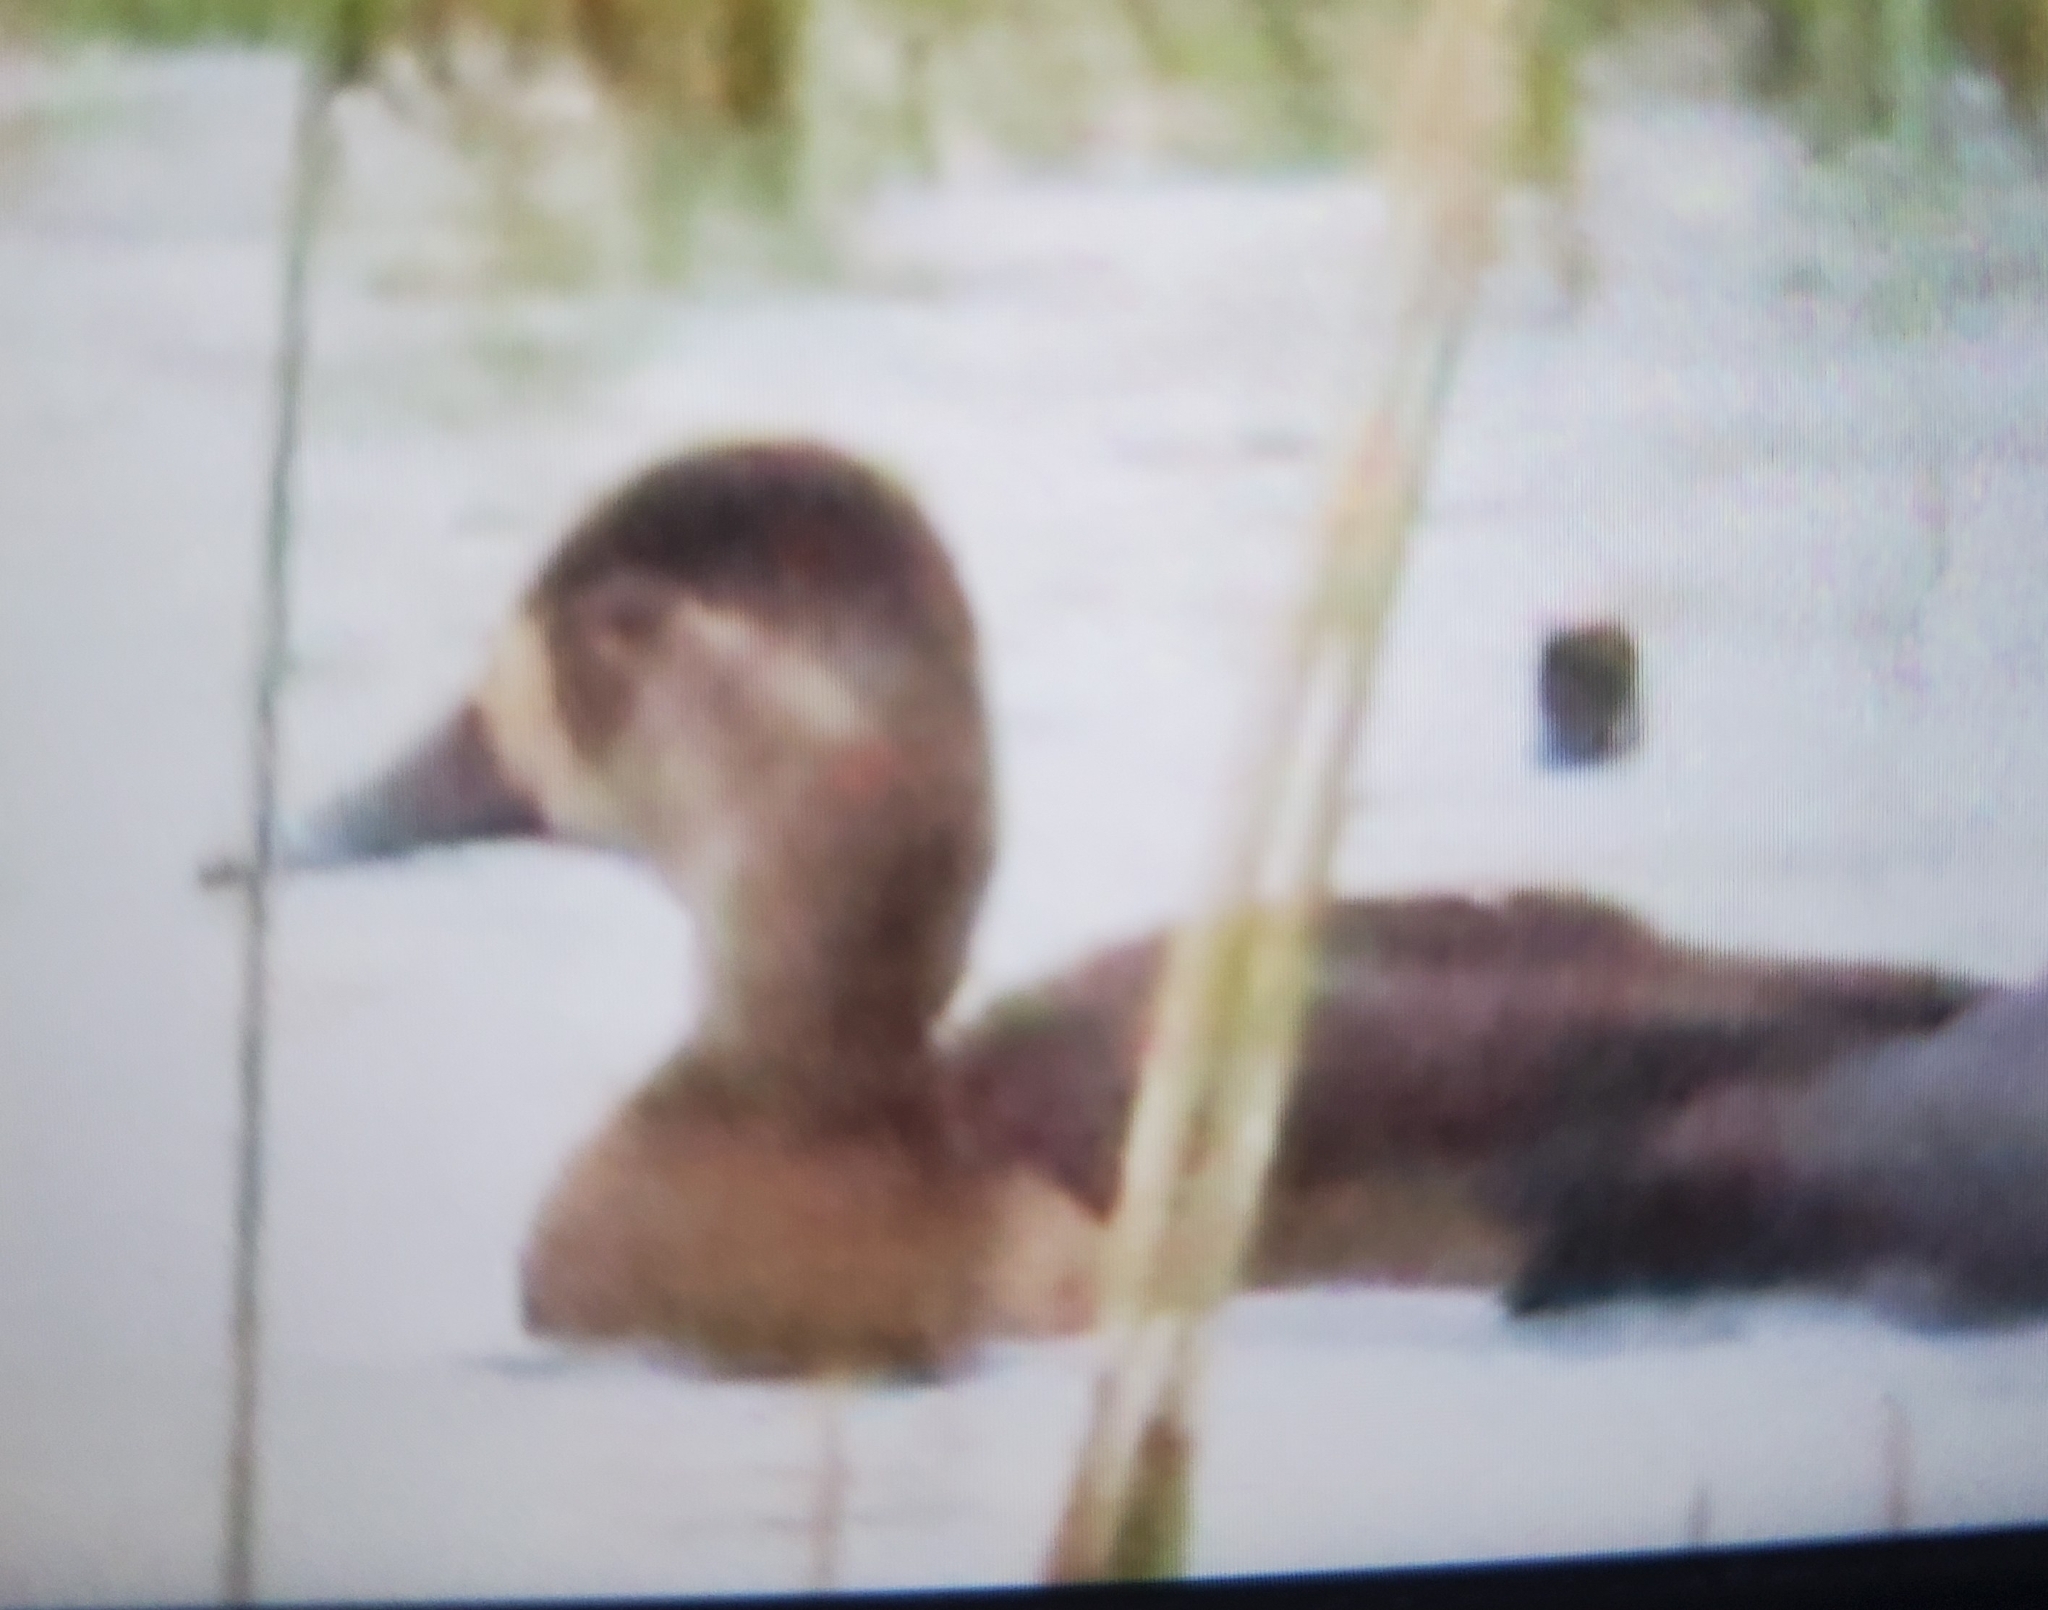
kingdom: Animalia
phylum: Chordata
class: Aves
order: Anseriformes
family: Anatidae
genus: Aythya
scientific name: Aythya collaris
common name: Ring-necked duck
